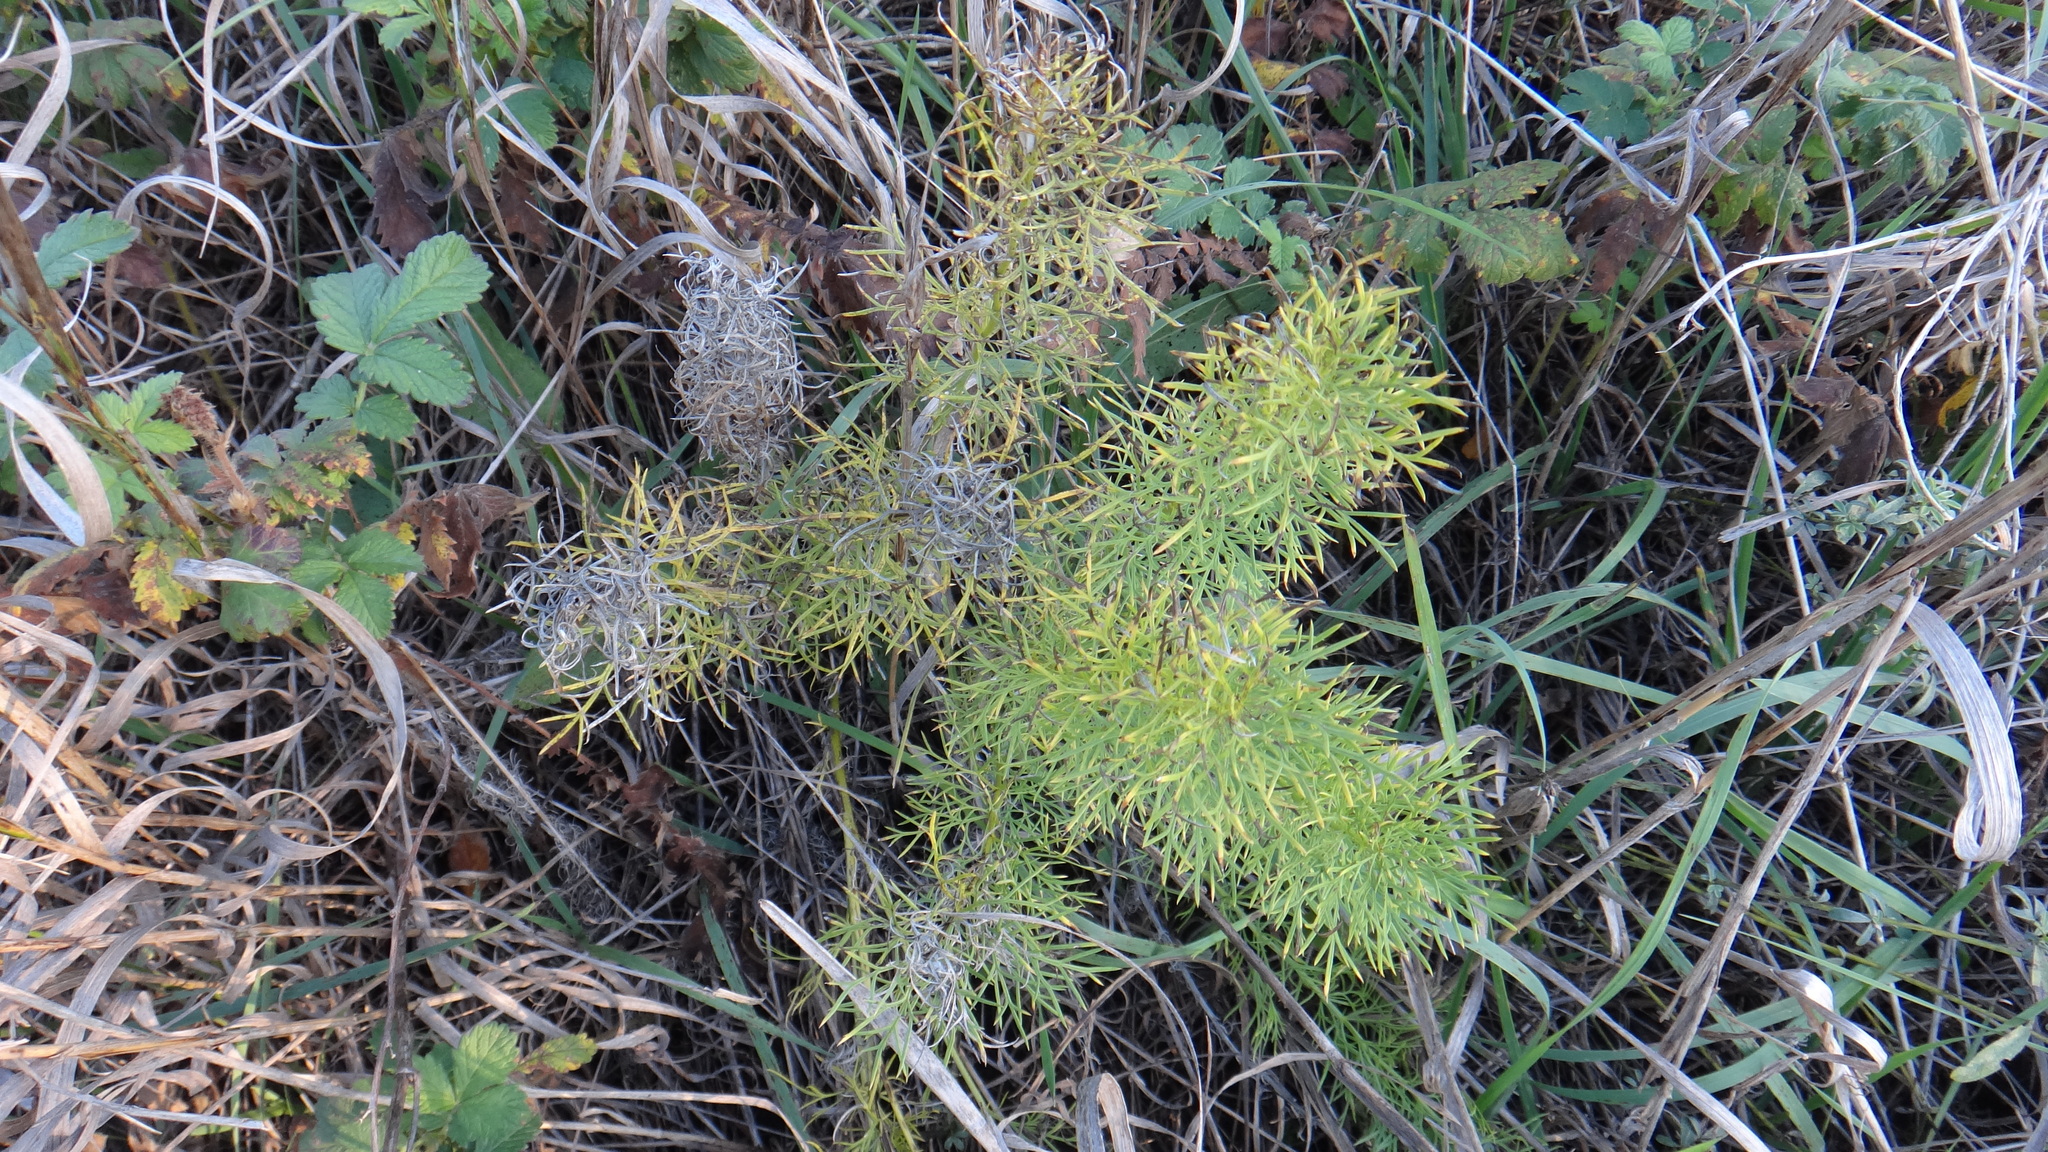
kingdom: Plantae
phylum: Tracheophyta
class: Magnoliopsida
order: Ranunculales
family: Ranunculaceae
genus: Adonis
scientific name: Adonis vernalis
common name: Yellow pheasants-eye
